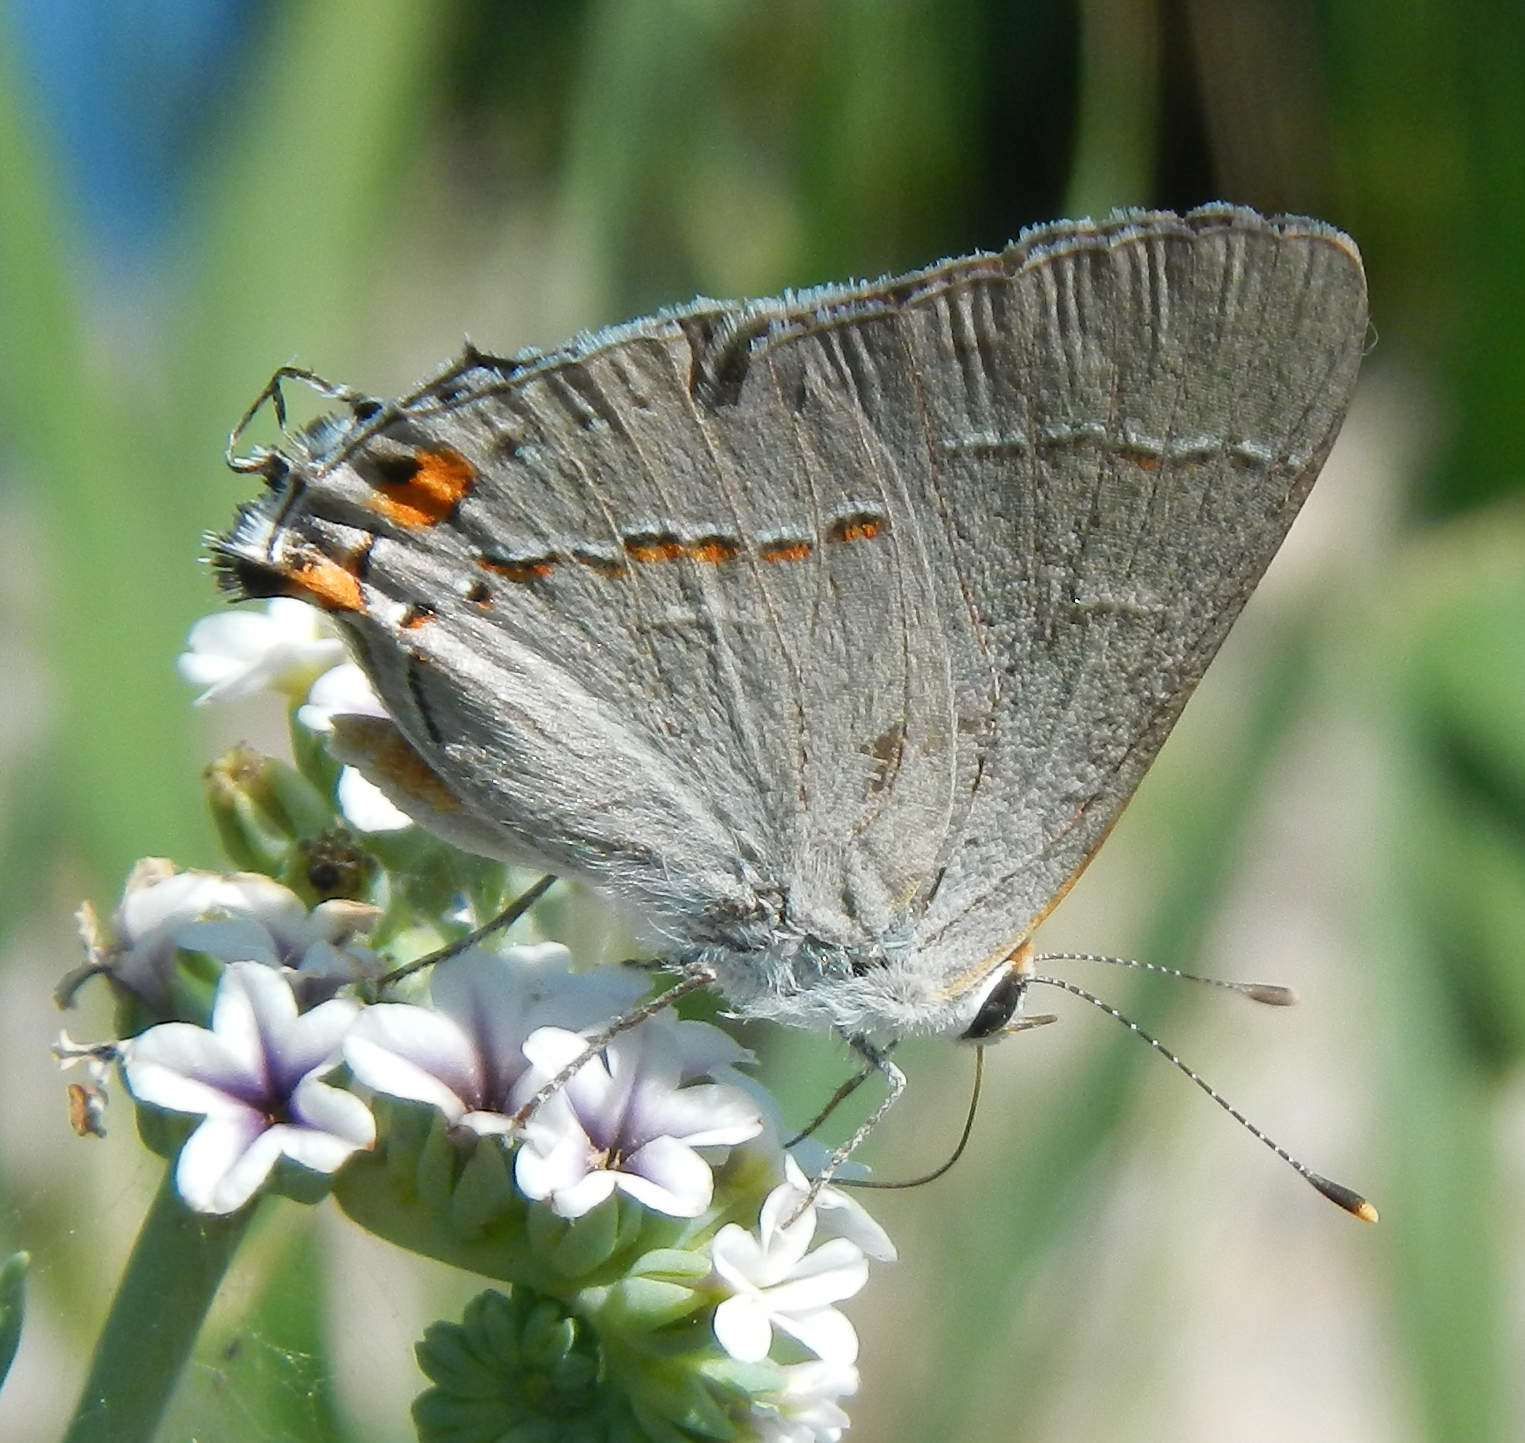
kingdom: Animalia
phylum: Arthropoda
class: Insecta
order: Lepidoptera
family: Lycaenidae
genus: Strymon
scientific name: Strymon melinus
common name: Gray hairstreak
